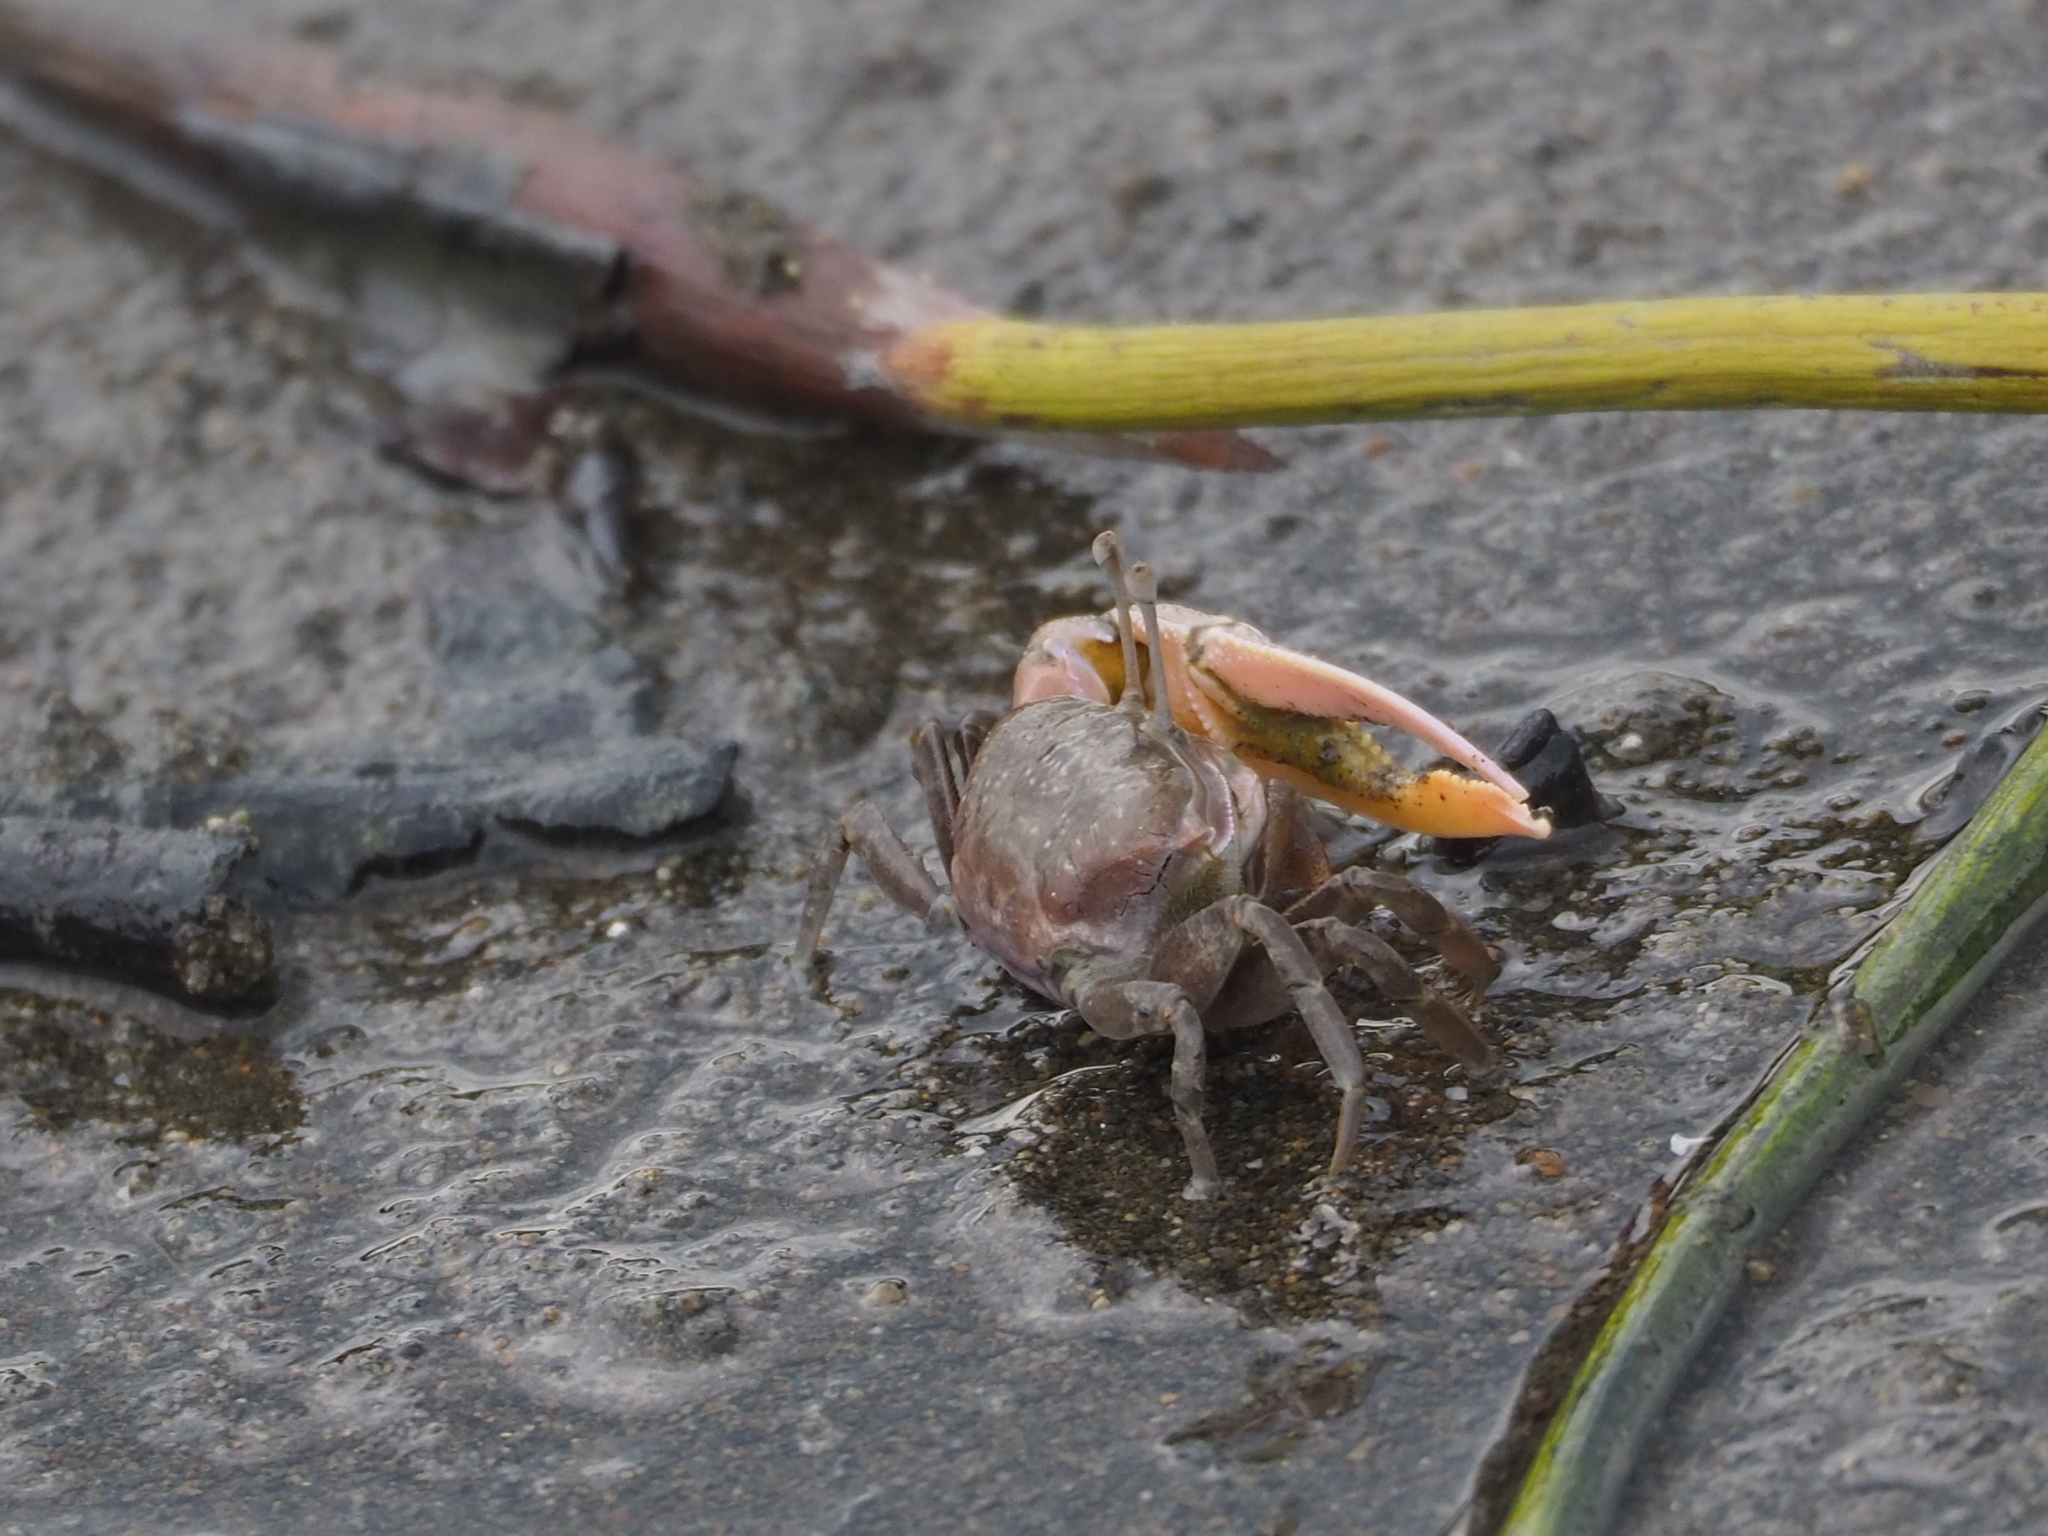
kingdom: Animalia
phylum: Arthropoda
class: Malacostraca
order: Decapoda
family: Ocypodidae
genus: Gelasimus
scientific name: Gelasimus borealis
